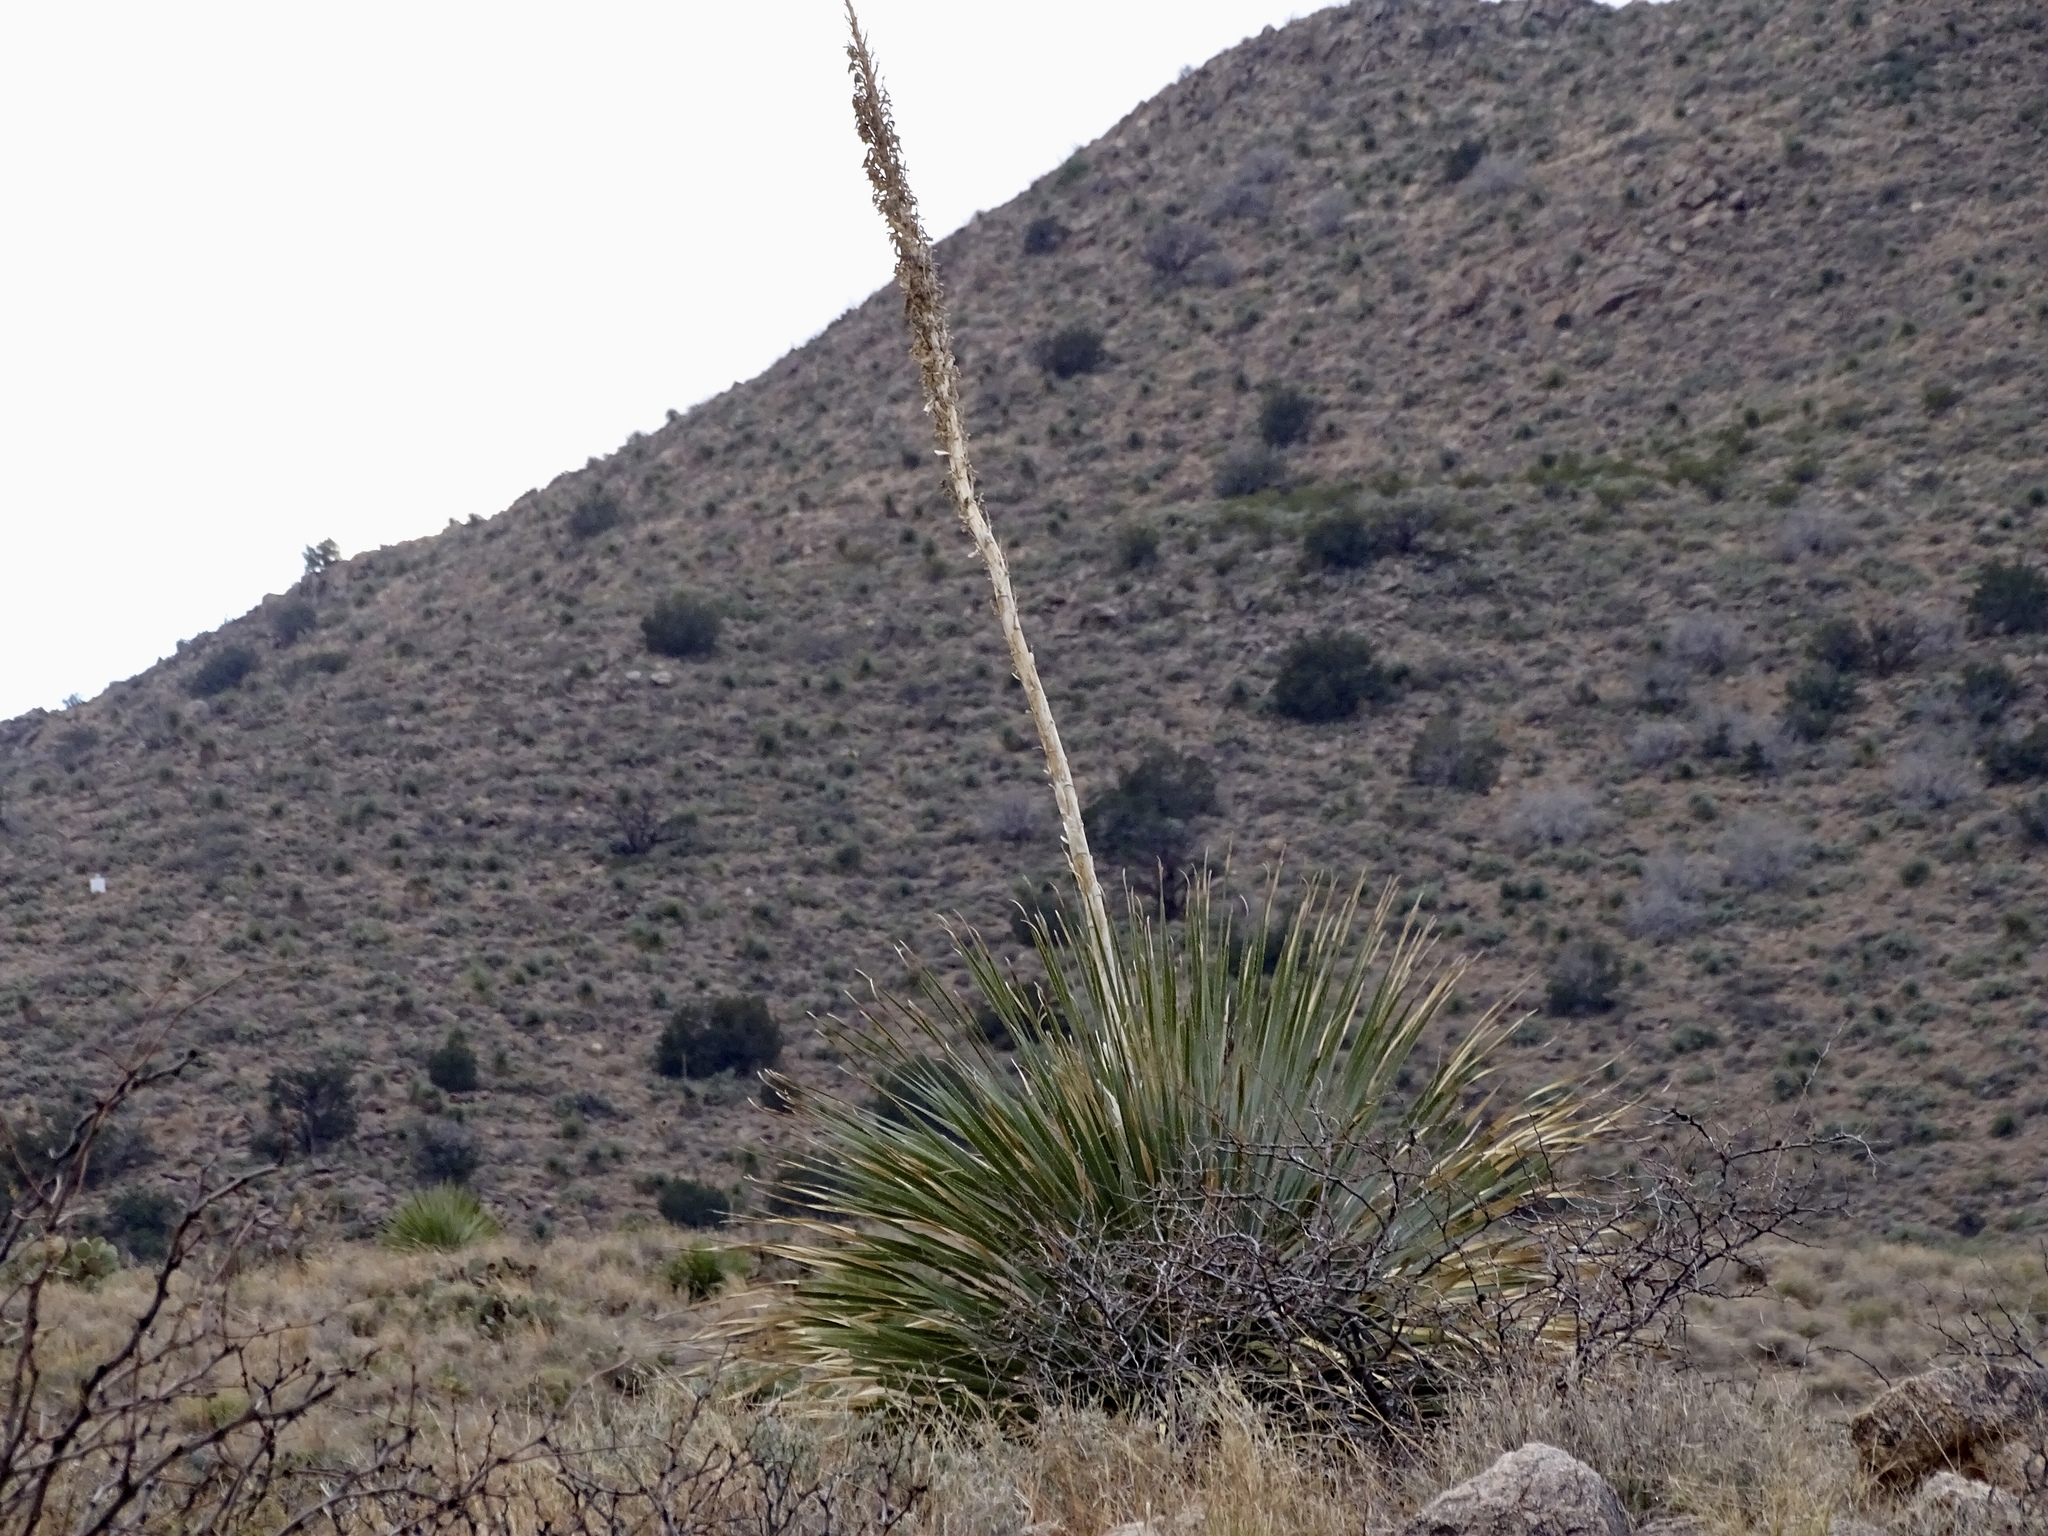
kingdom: Plantae
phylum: Tracheophyta
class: Liliopsida
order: Asparagales
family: Asparagaceae
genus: Dasylirion
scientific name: Dasylirion wheeleri
